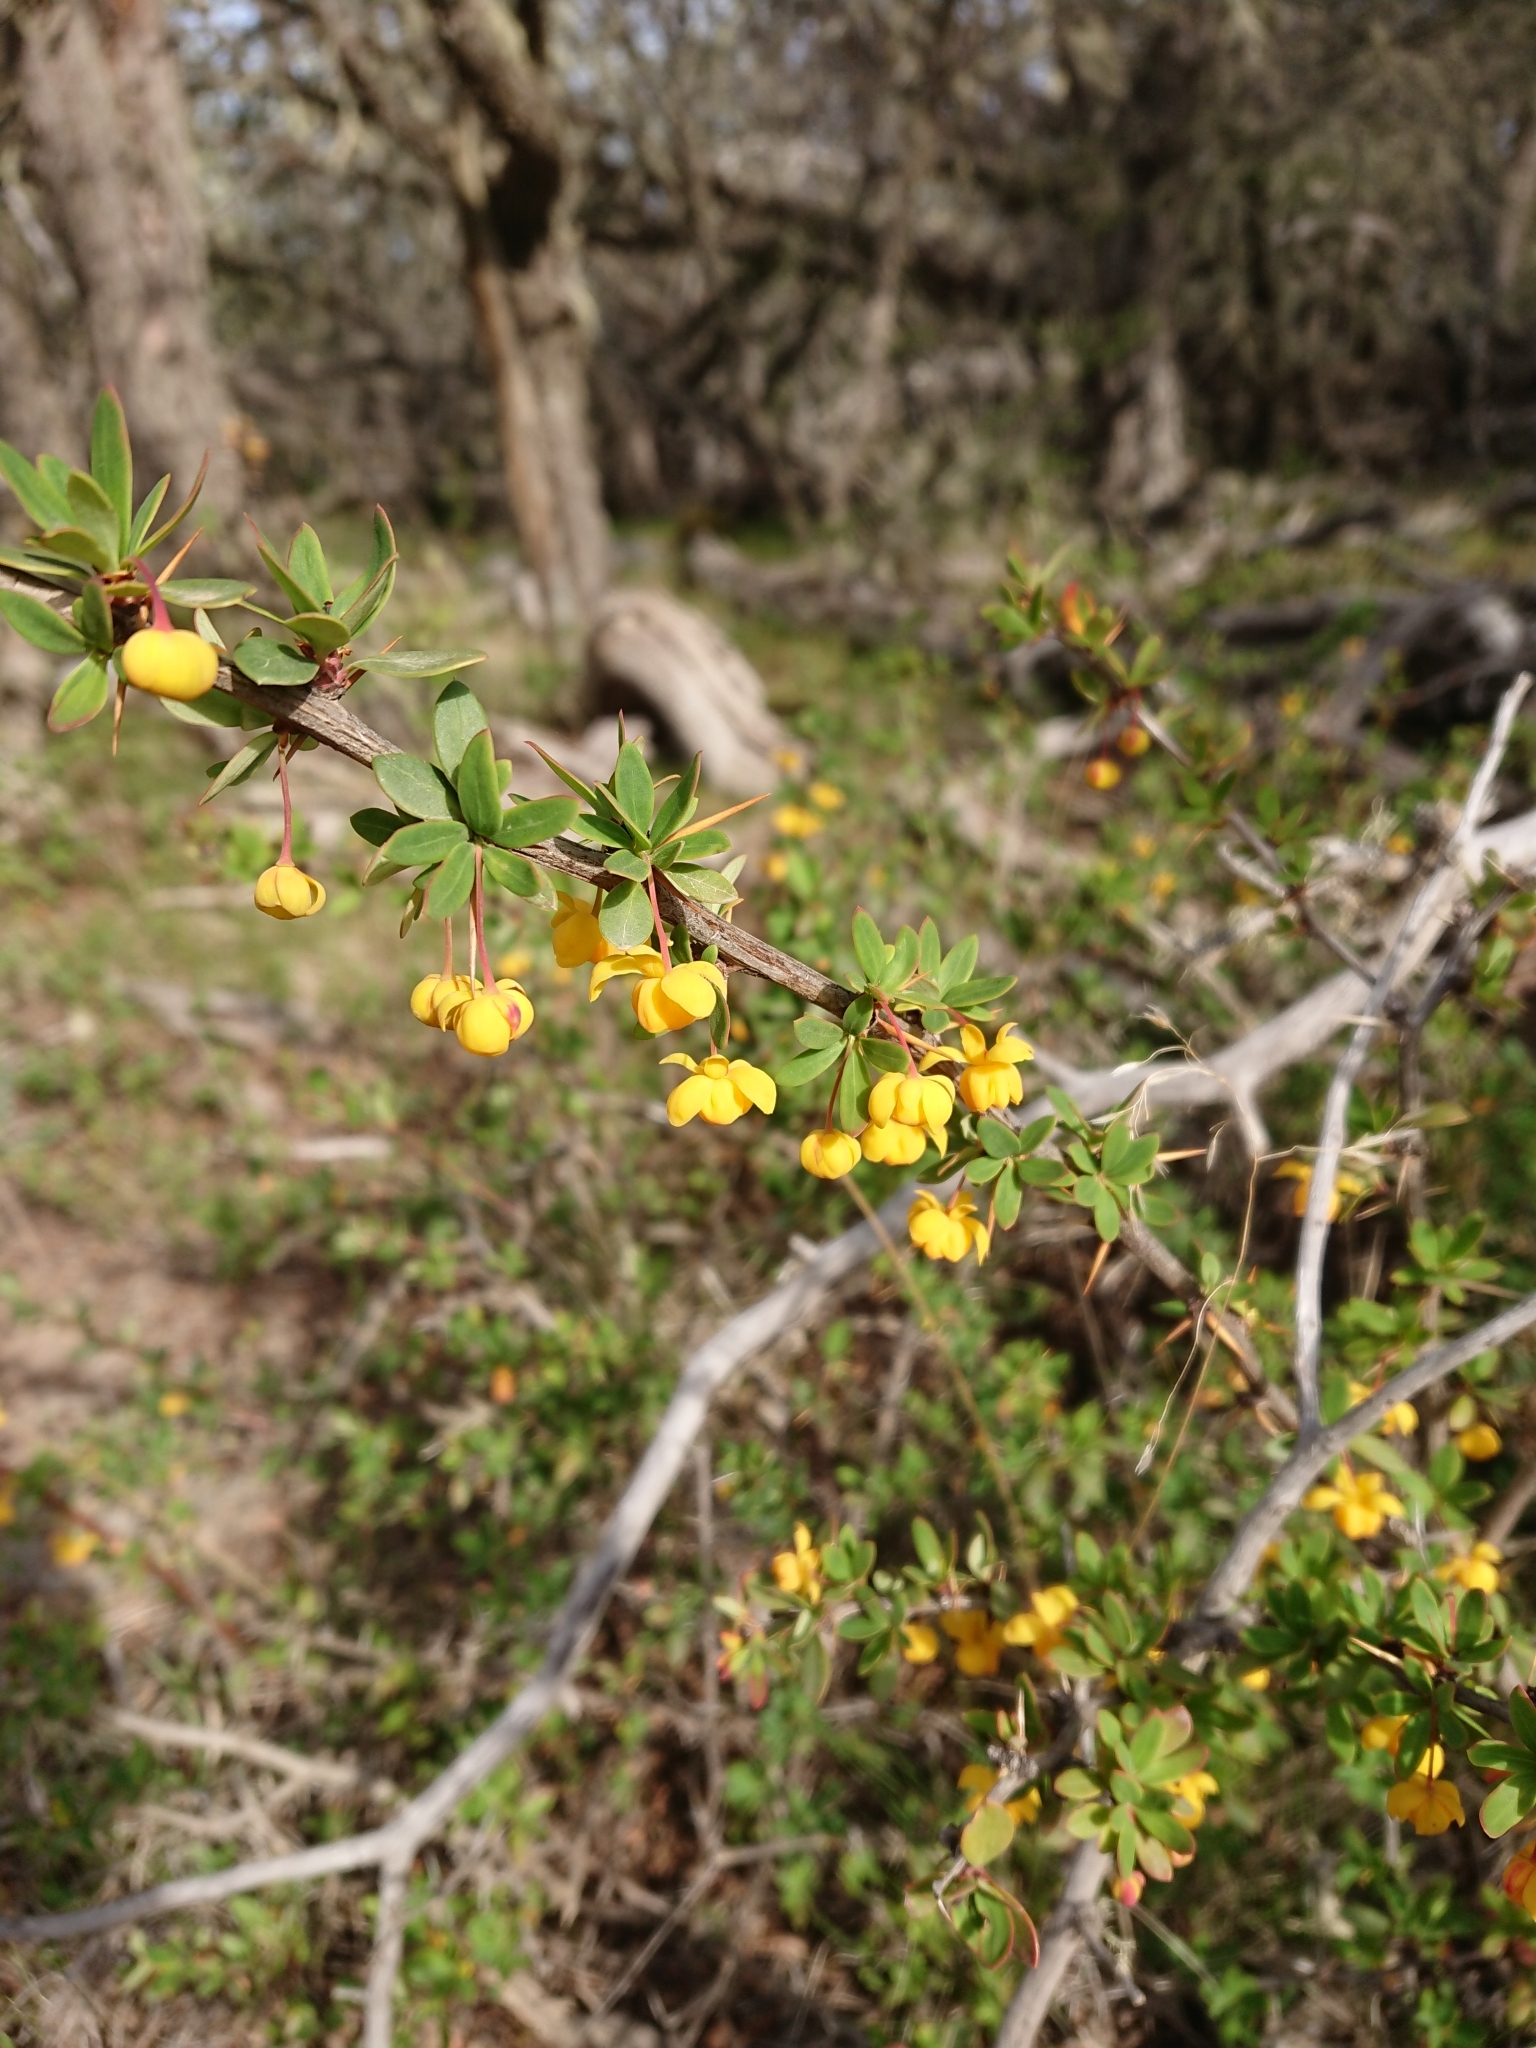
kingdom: Plantae
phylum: Tracheophyta
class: Magnoliopsida
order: Ranunculales
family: Berberidaceae
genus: Berberis
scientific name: Berberis microphylla
